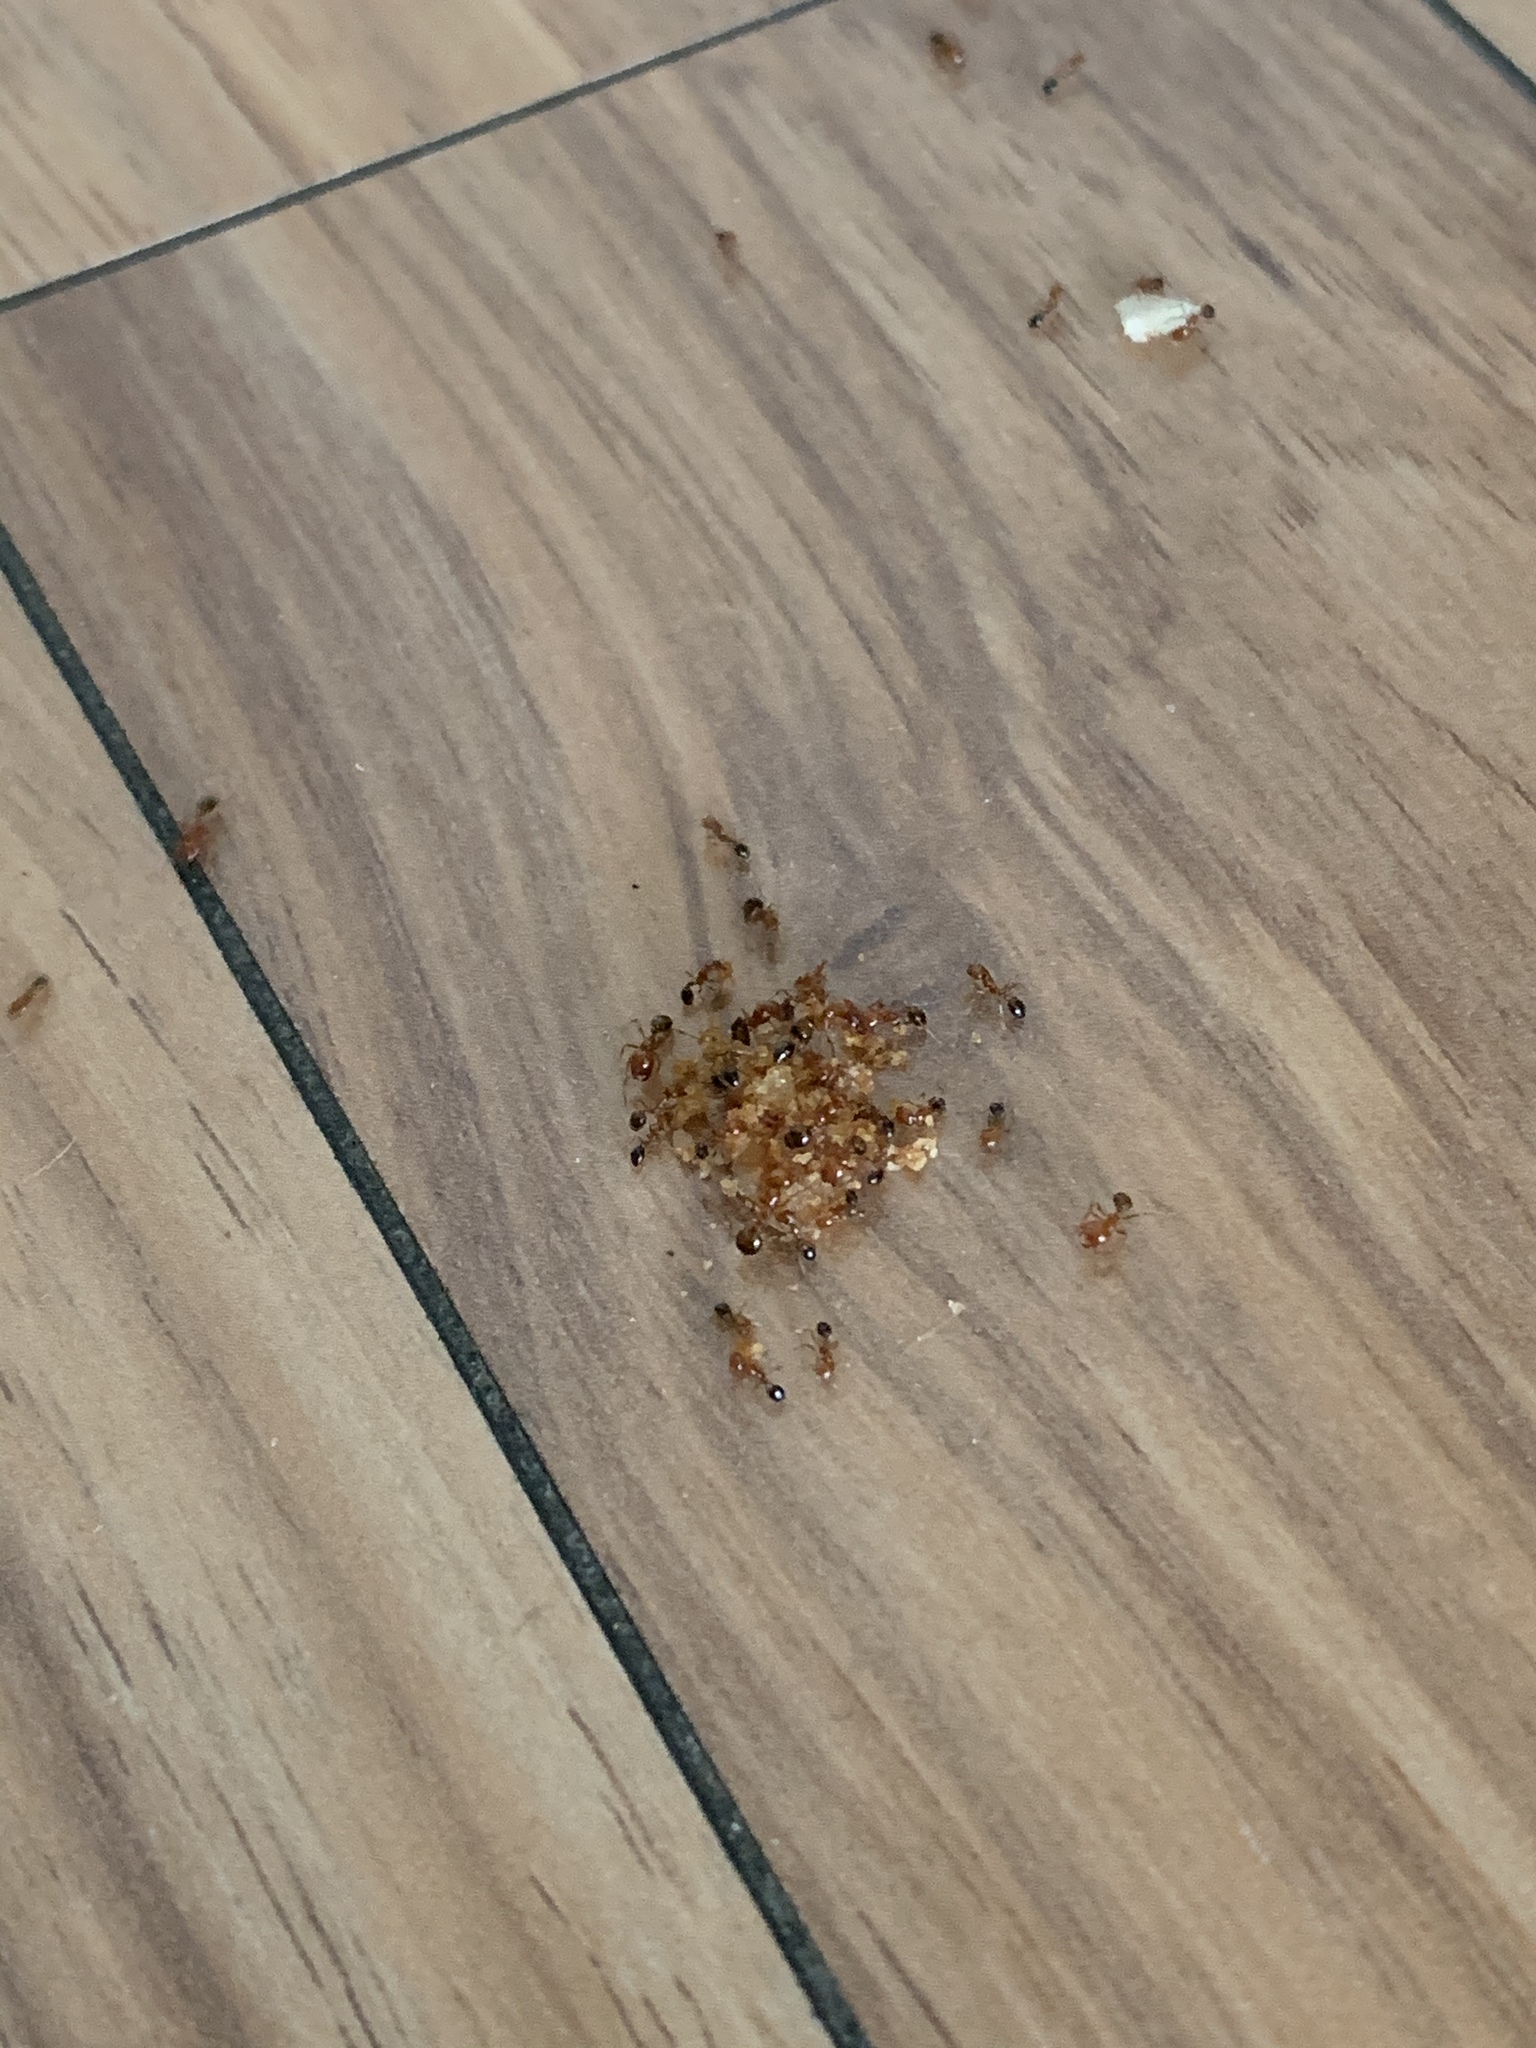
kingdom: Animalia
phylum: Arthropoda
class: Insecta
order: Hymenoptera
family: Formicidae
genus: Solenopsis
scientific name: Solenopsis xyloni
